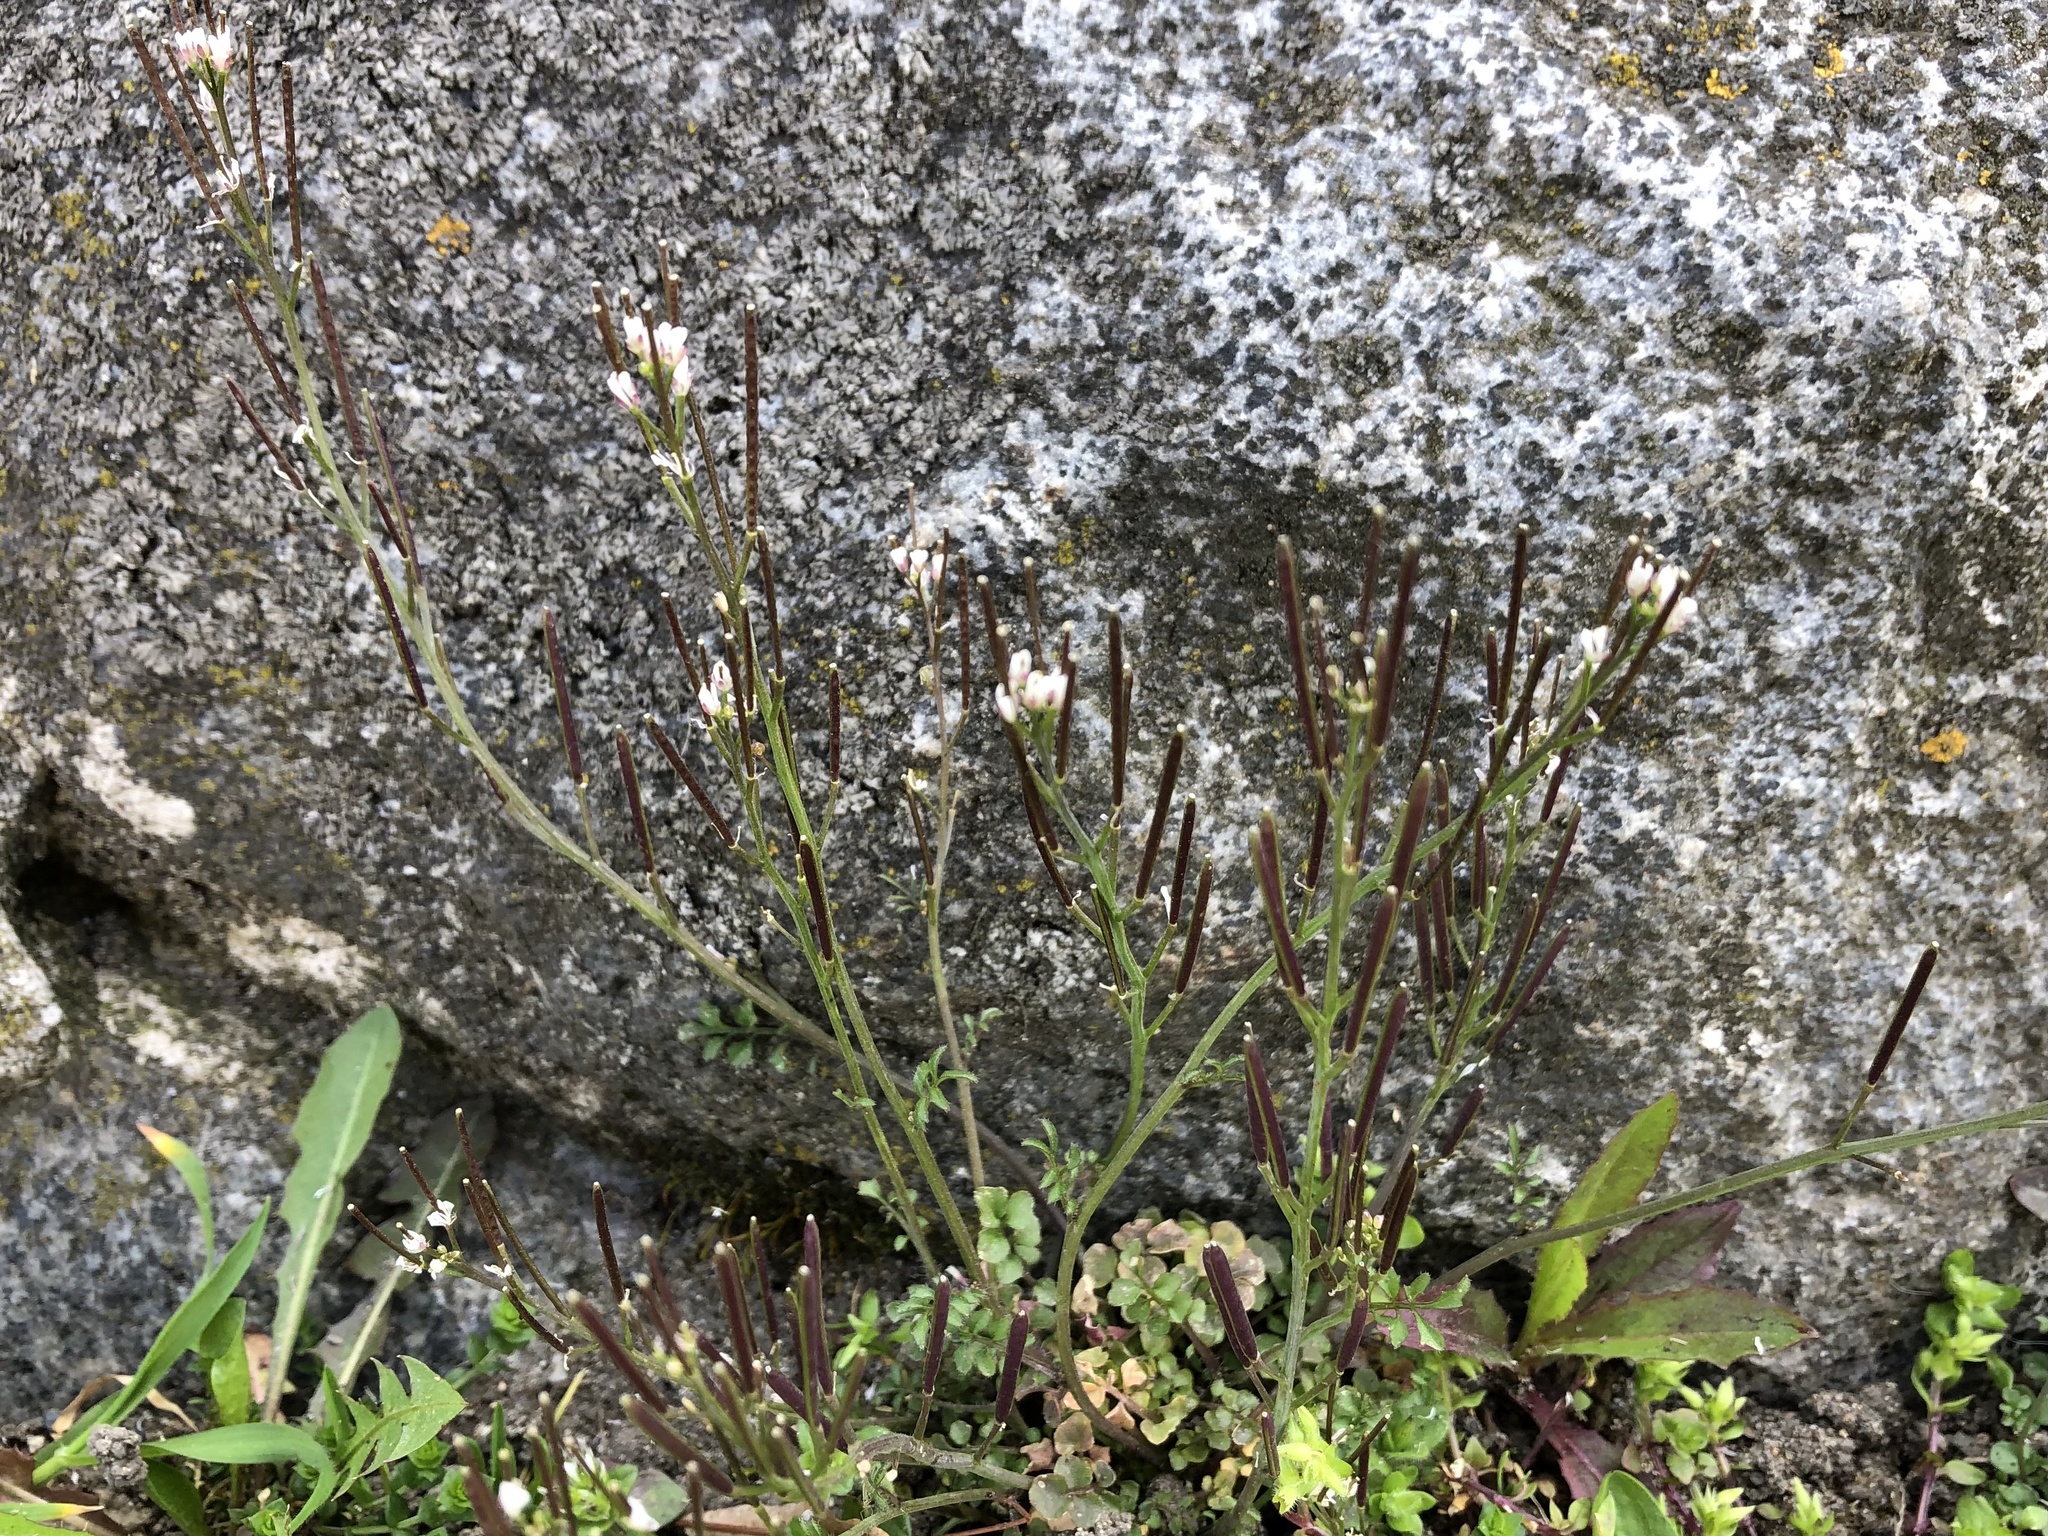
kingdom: Plantae
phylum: Tracheophyta
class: Magnoliopsida
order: Brassicales
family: Brassicaceae
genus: Cardamine
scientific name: Cardamine hirsuta
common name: Hairy bittercress
